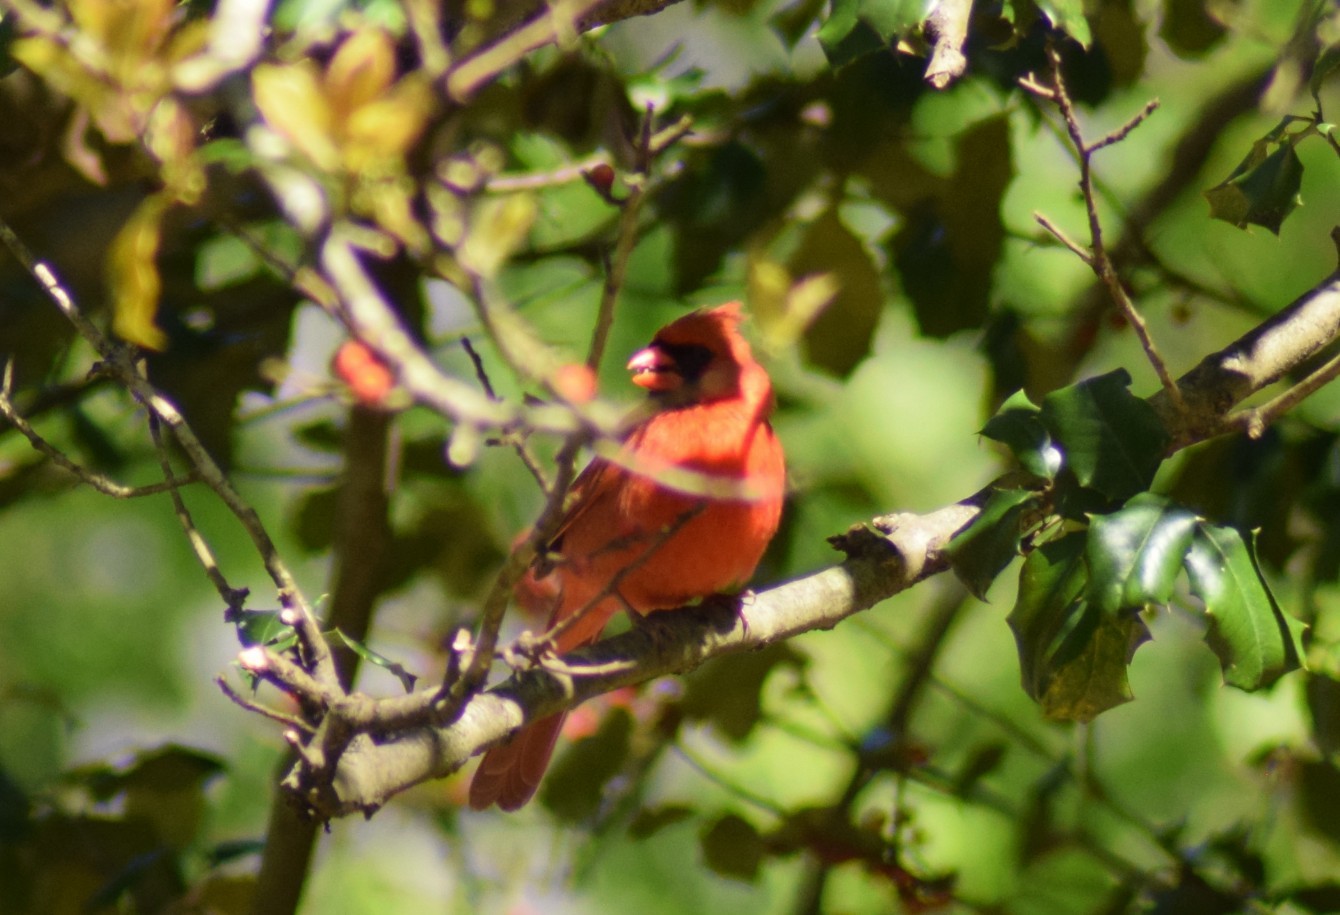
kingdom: Animalia
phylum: Chordata
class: Aves
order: Passeriformes
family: Cardinalidae
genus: Cardinalis
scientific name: Cardinalis cardinalis
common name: Northern cardinal
